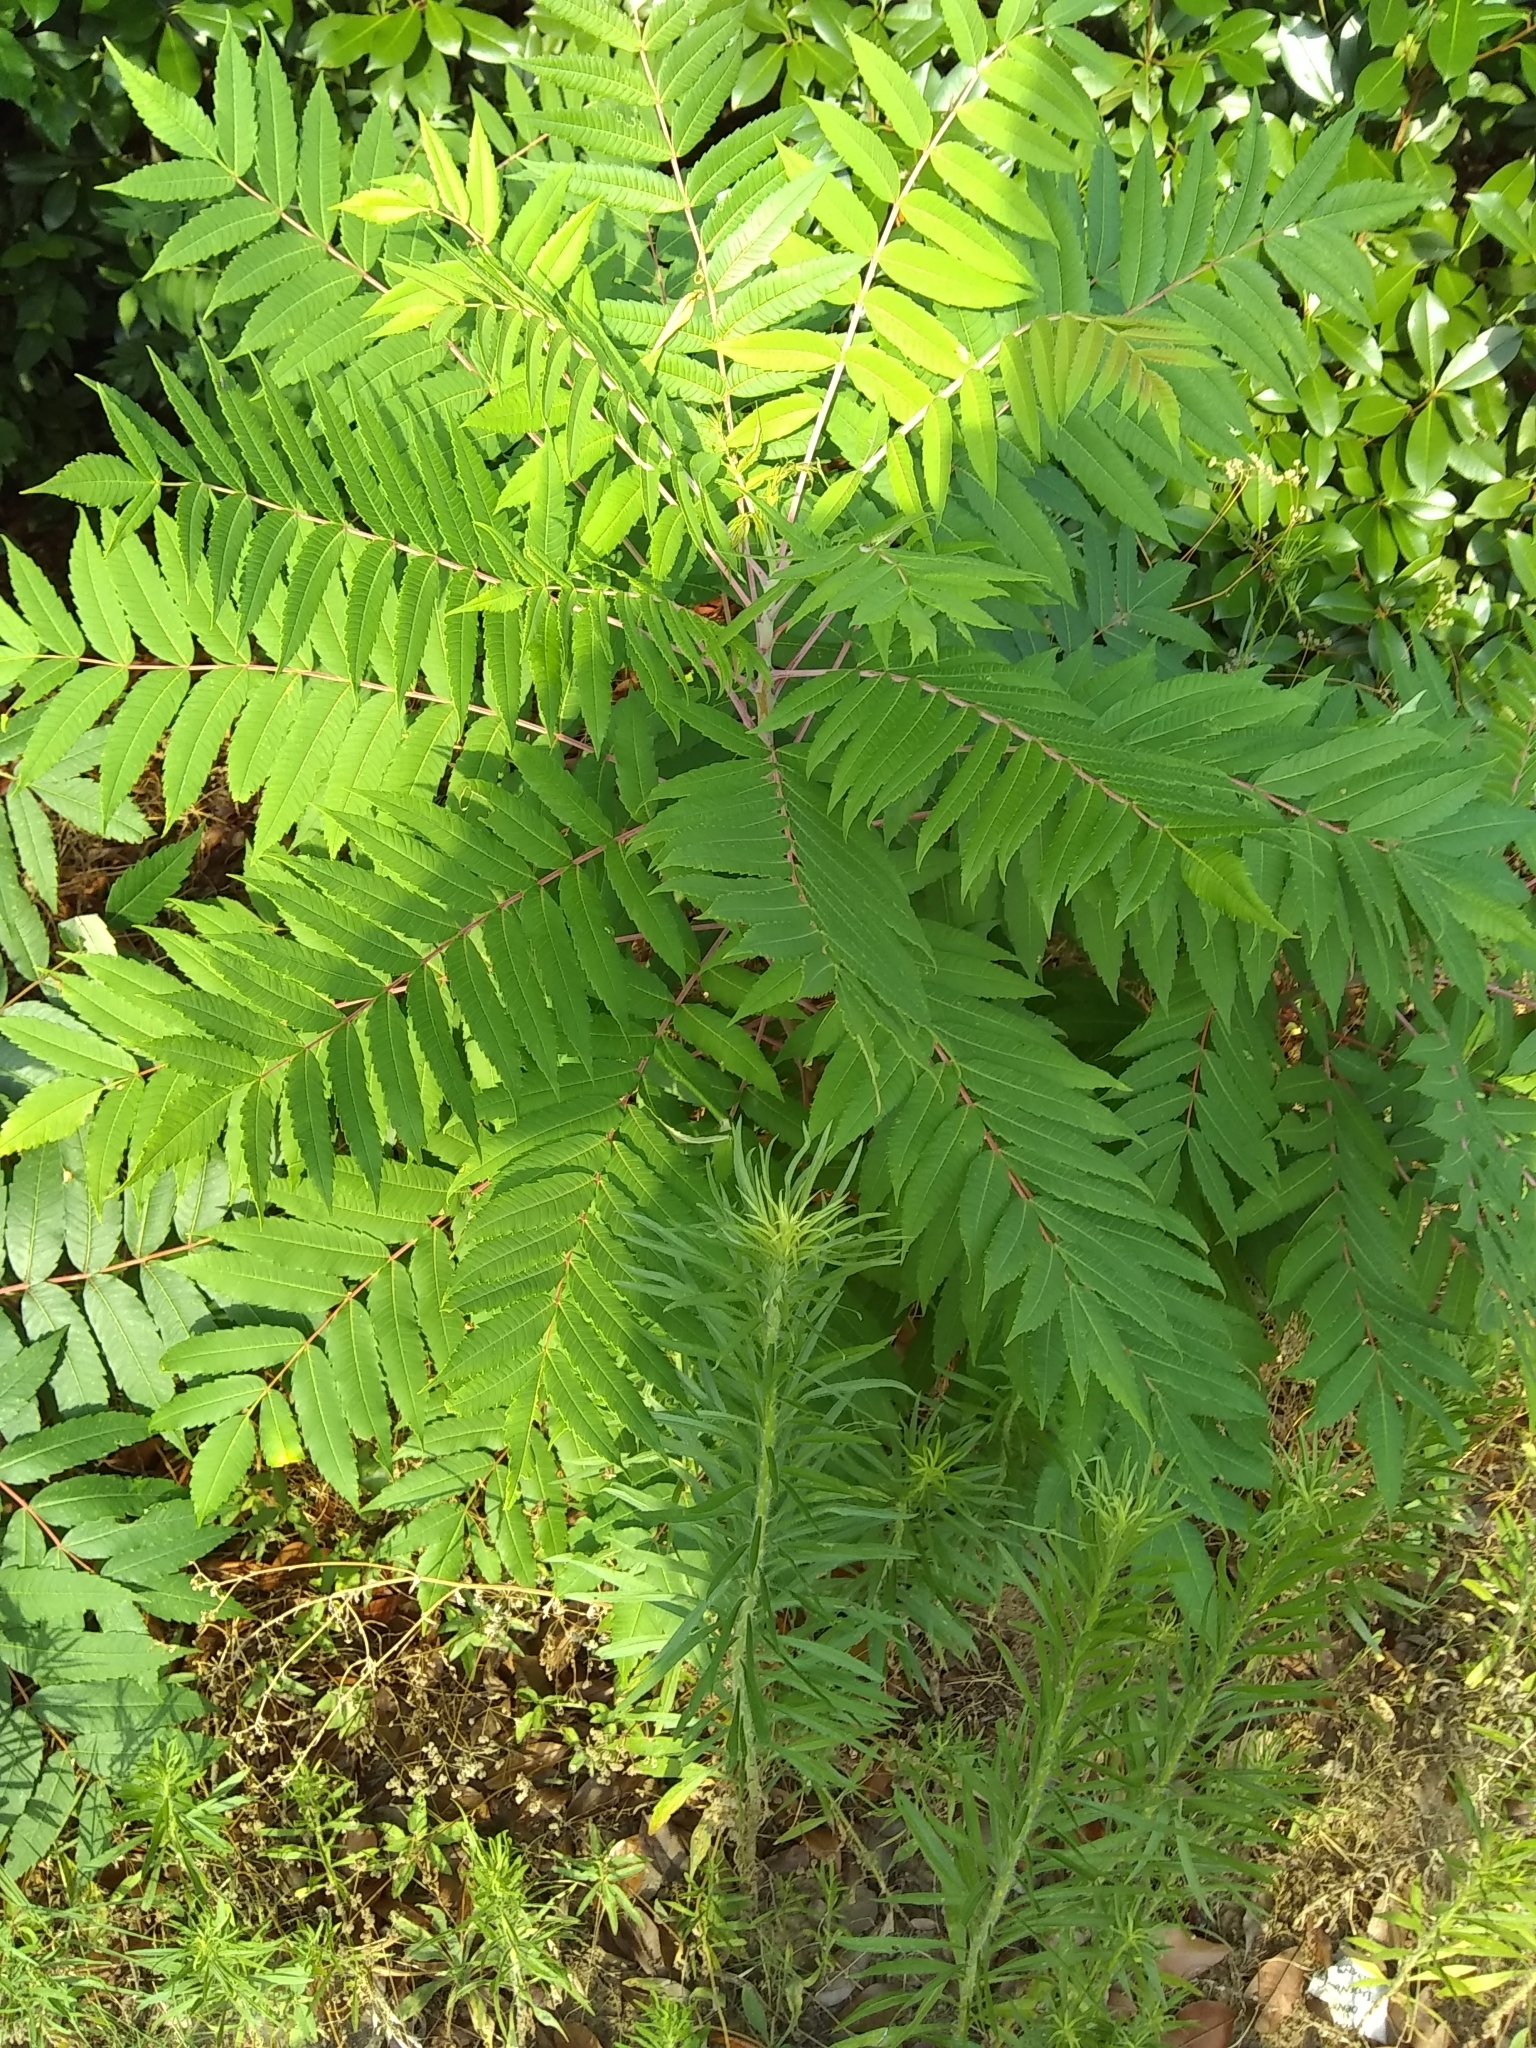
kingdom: Plantae
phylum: Tracheophyta
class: Magnoliopsida
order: Sapindales
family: Anacardiaceae
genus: Rhus
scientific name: Rhus glabra
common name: Scarlet sumac
